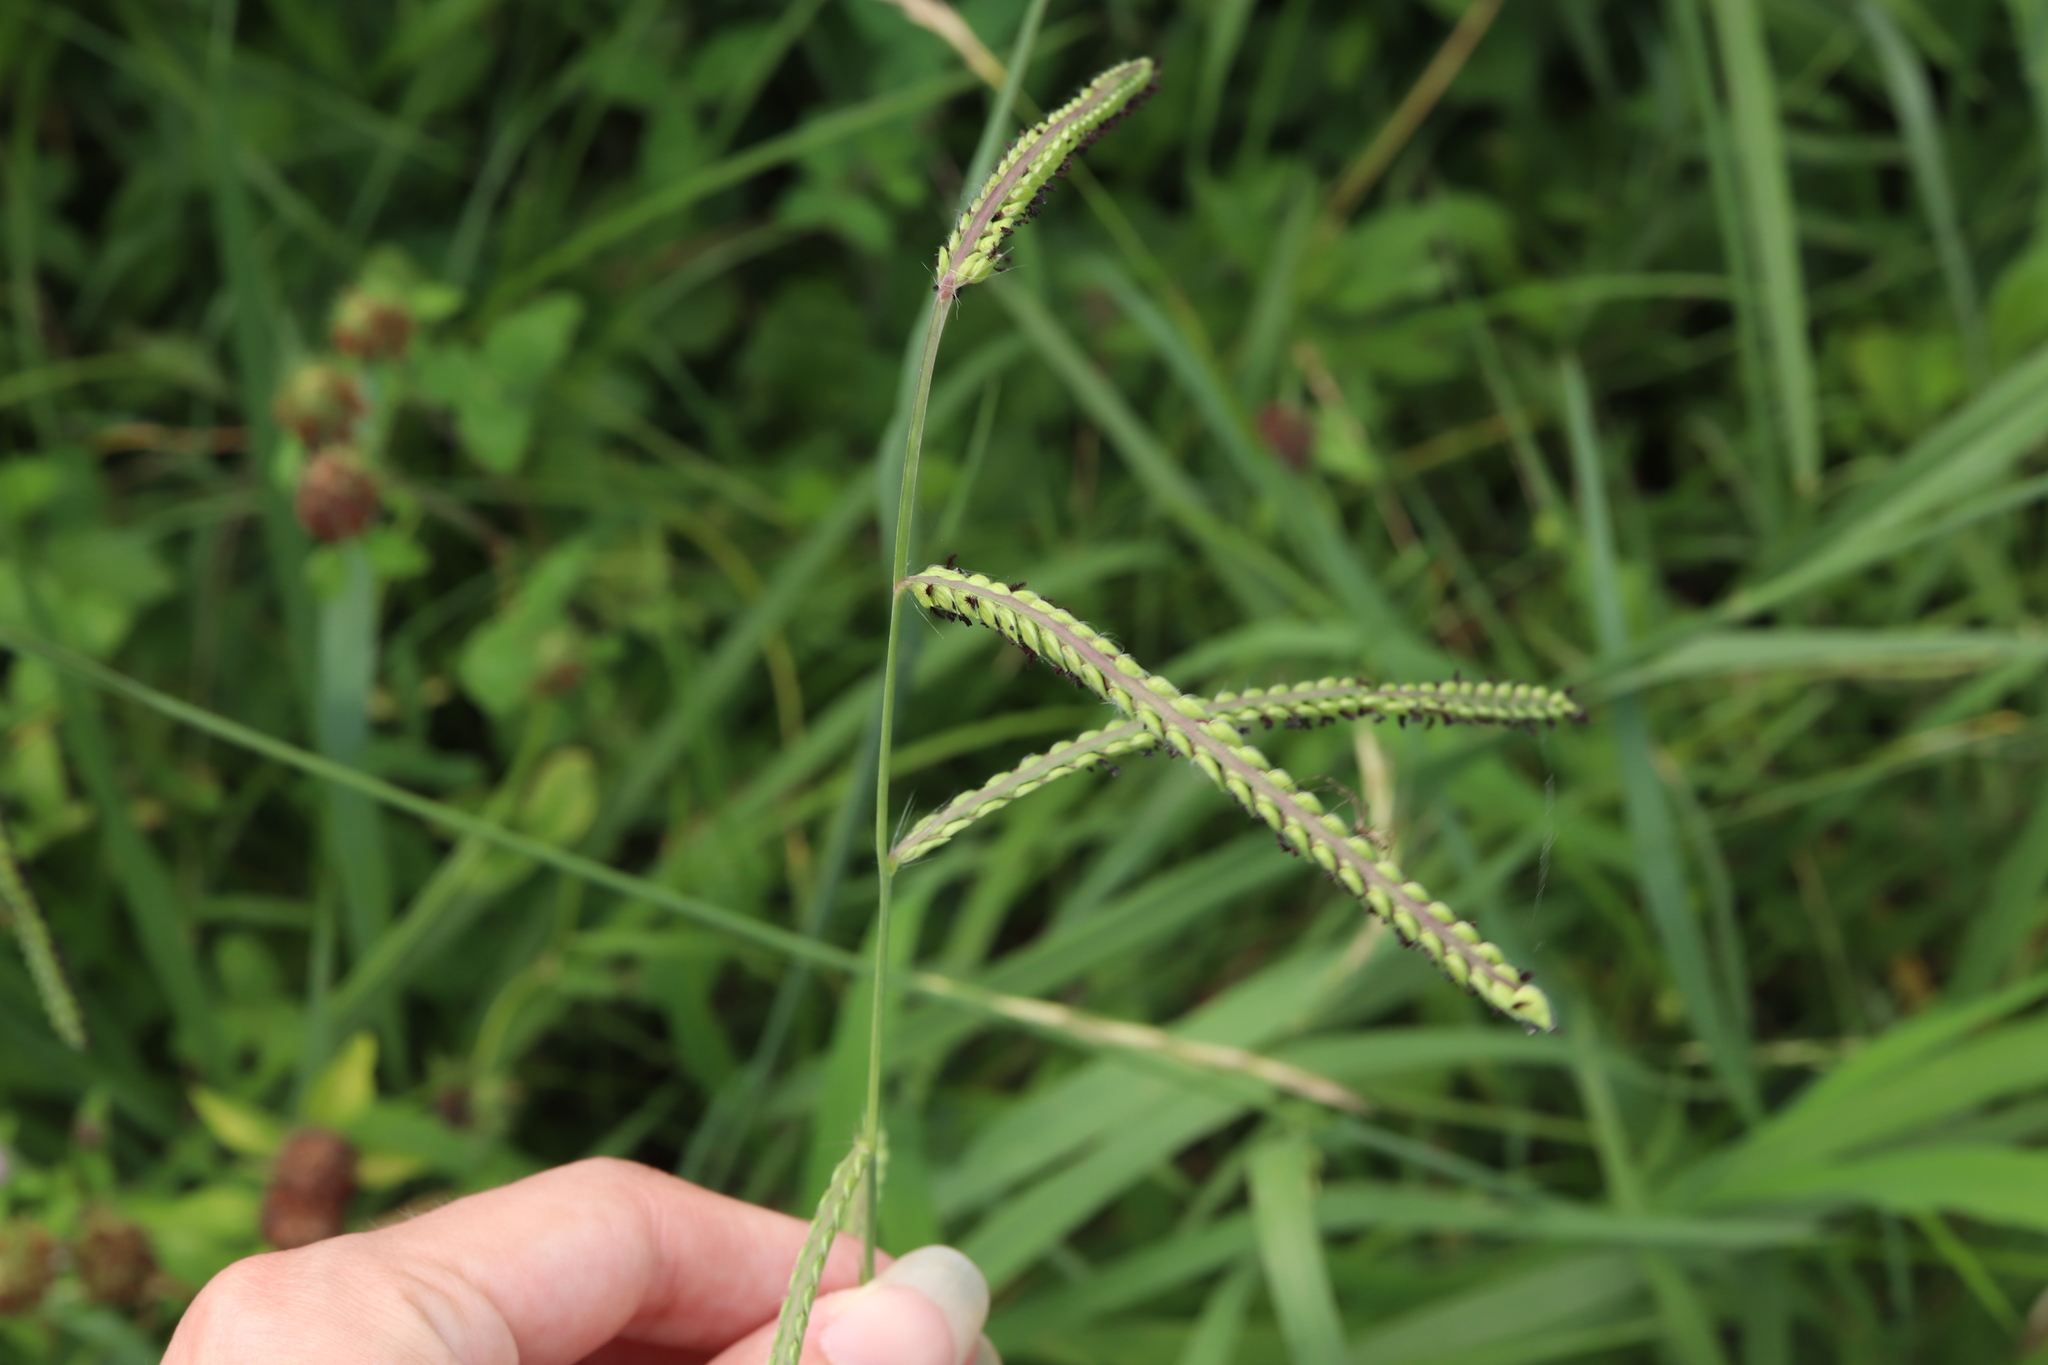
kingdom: Plantae
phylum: Tracheophyta
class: Liliopsida
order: Poales
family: Poaceae
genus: Paspalum
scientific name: Paspalum dilatatum
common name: Dallisgrass
